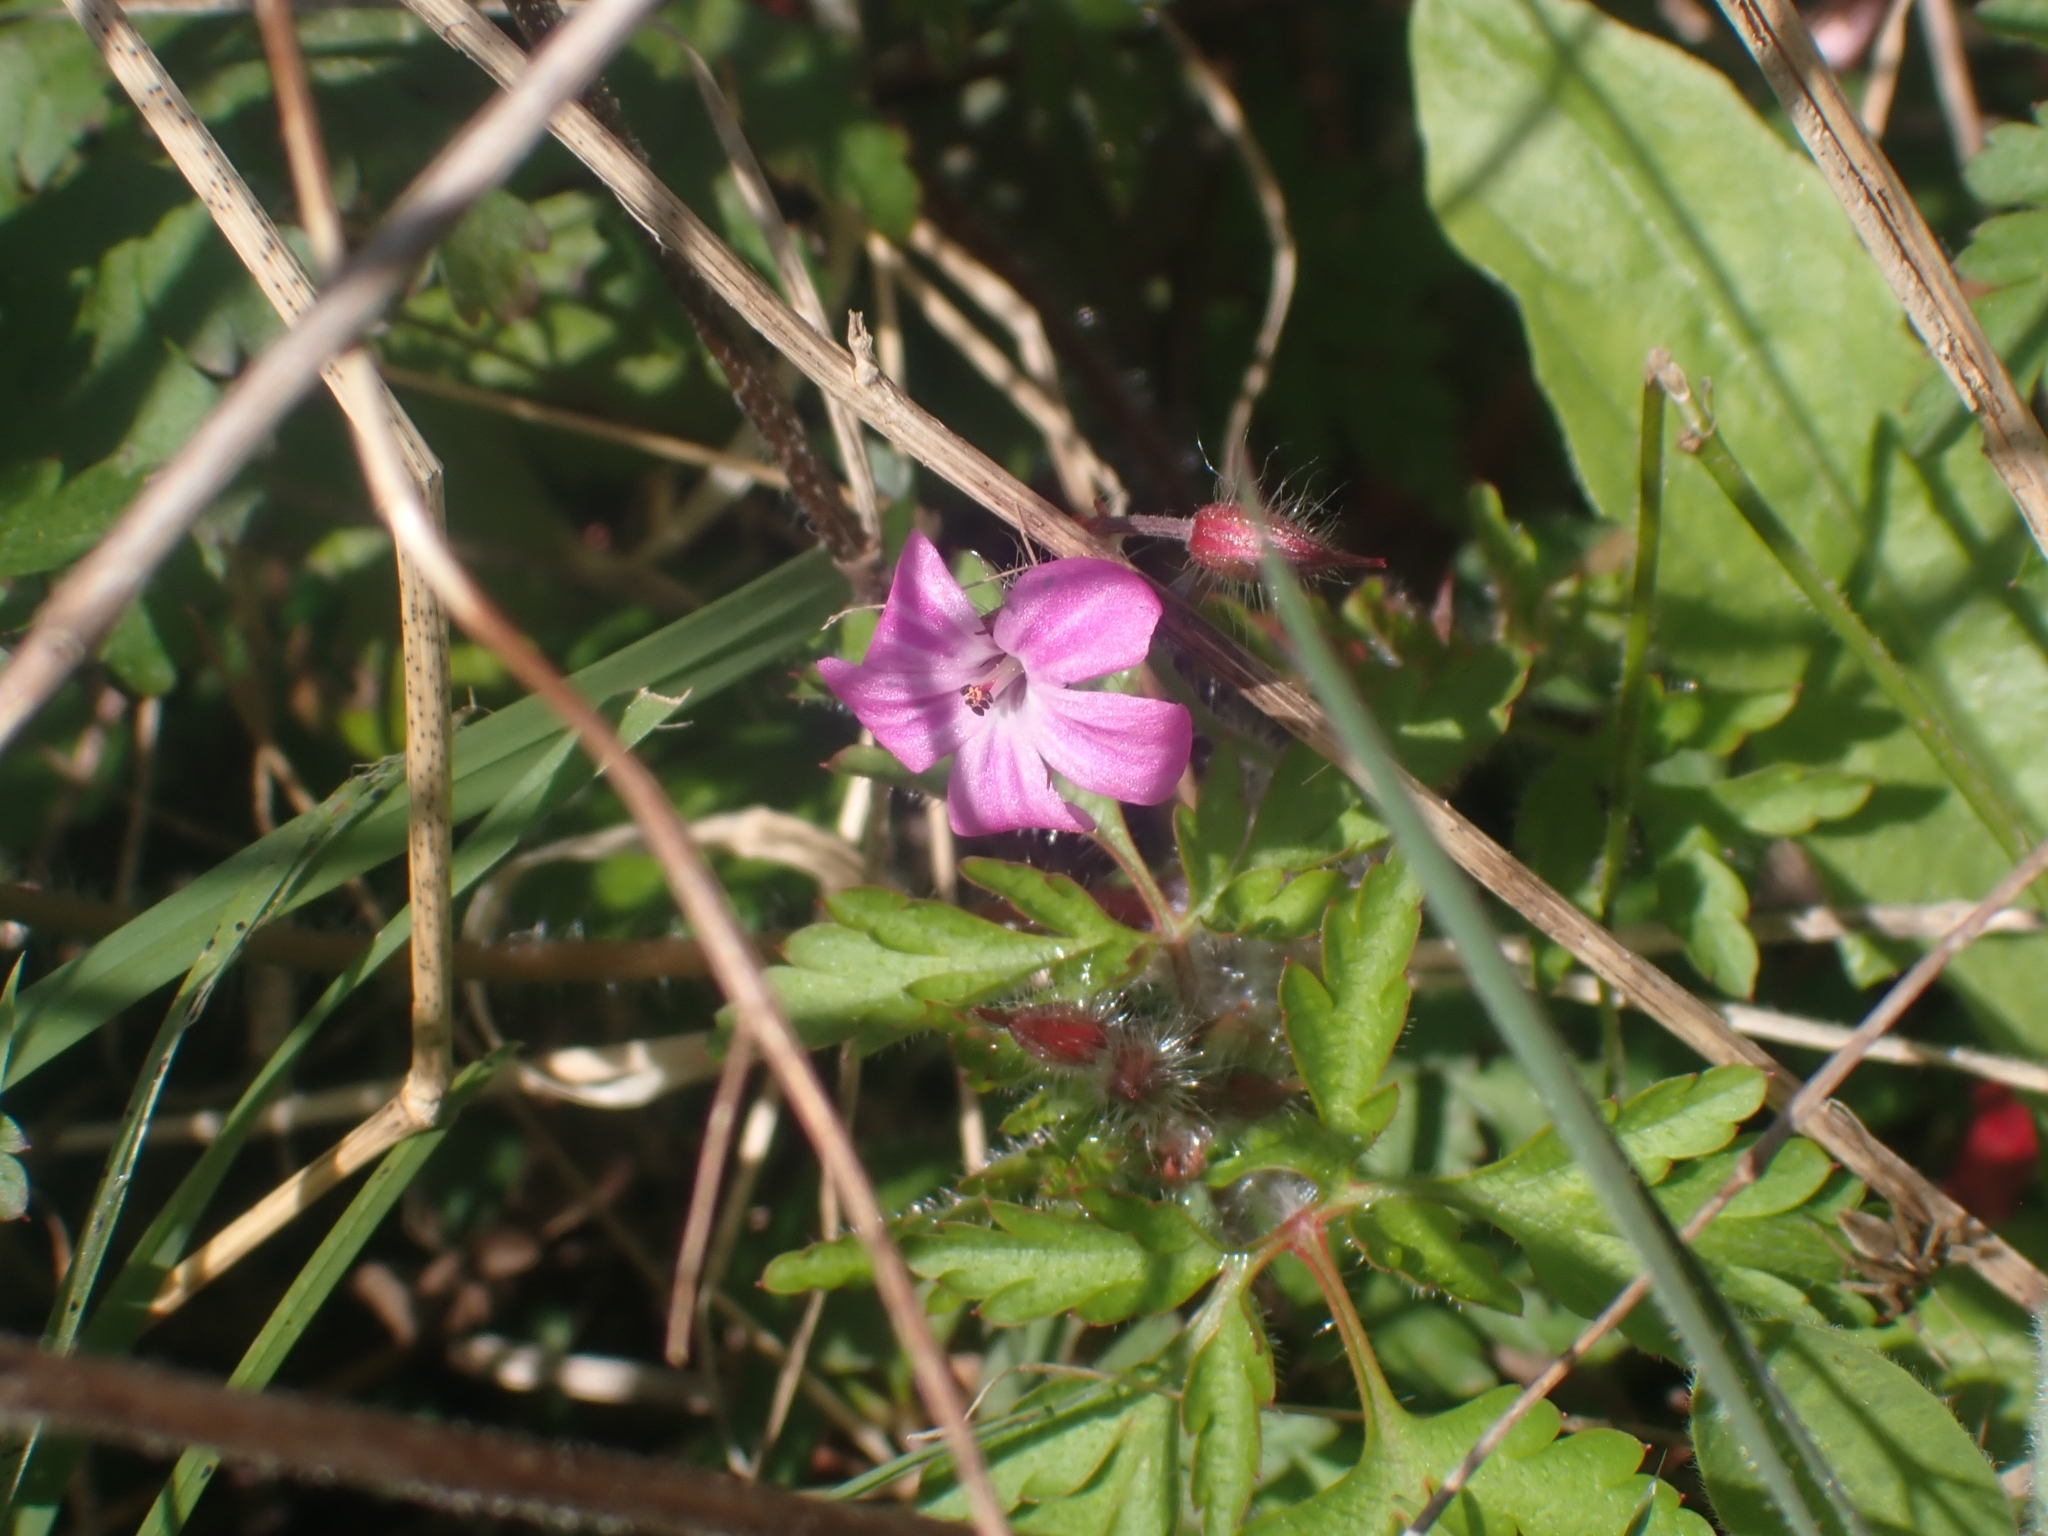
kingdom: Plantae
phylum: Tracheophyta
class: Magnoliopsida
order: Geraniales
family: Geraniaceae
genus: Geranium
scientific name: Geranium robertianum
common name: Herb-robert
